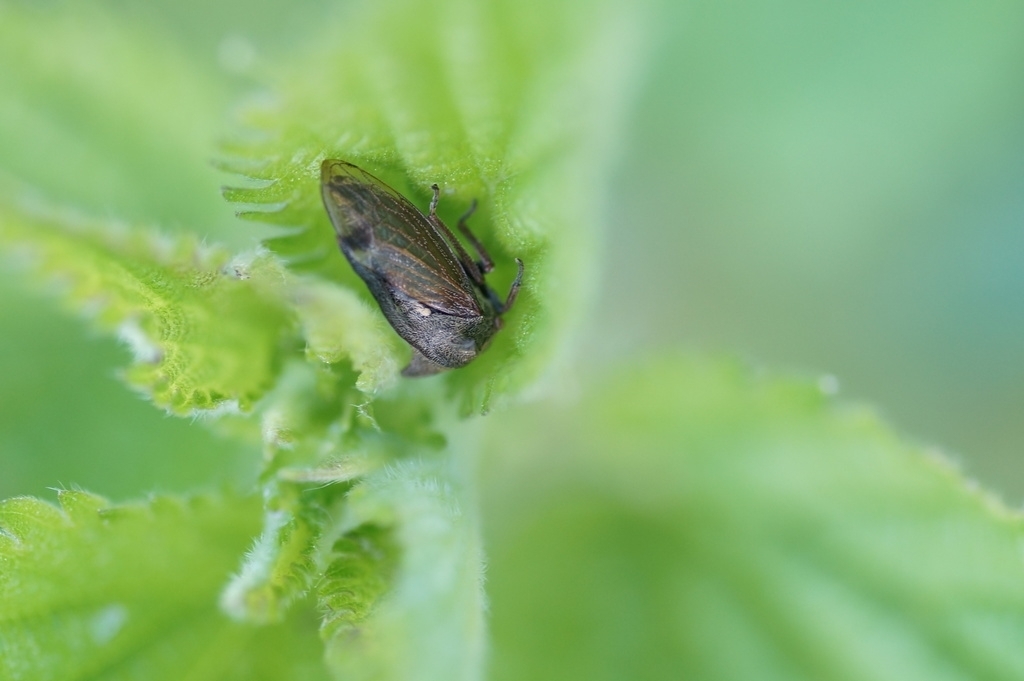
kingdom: Animalia
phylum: Arthropoda
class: Insecta
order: Hemiptera
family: Membracidae
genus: Centrotus
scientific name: Centrotus cornuta
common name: Treehopper
